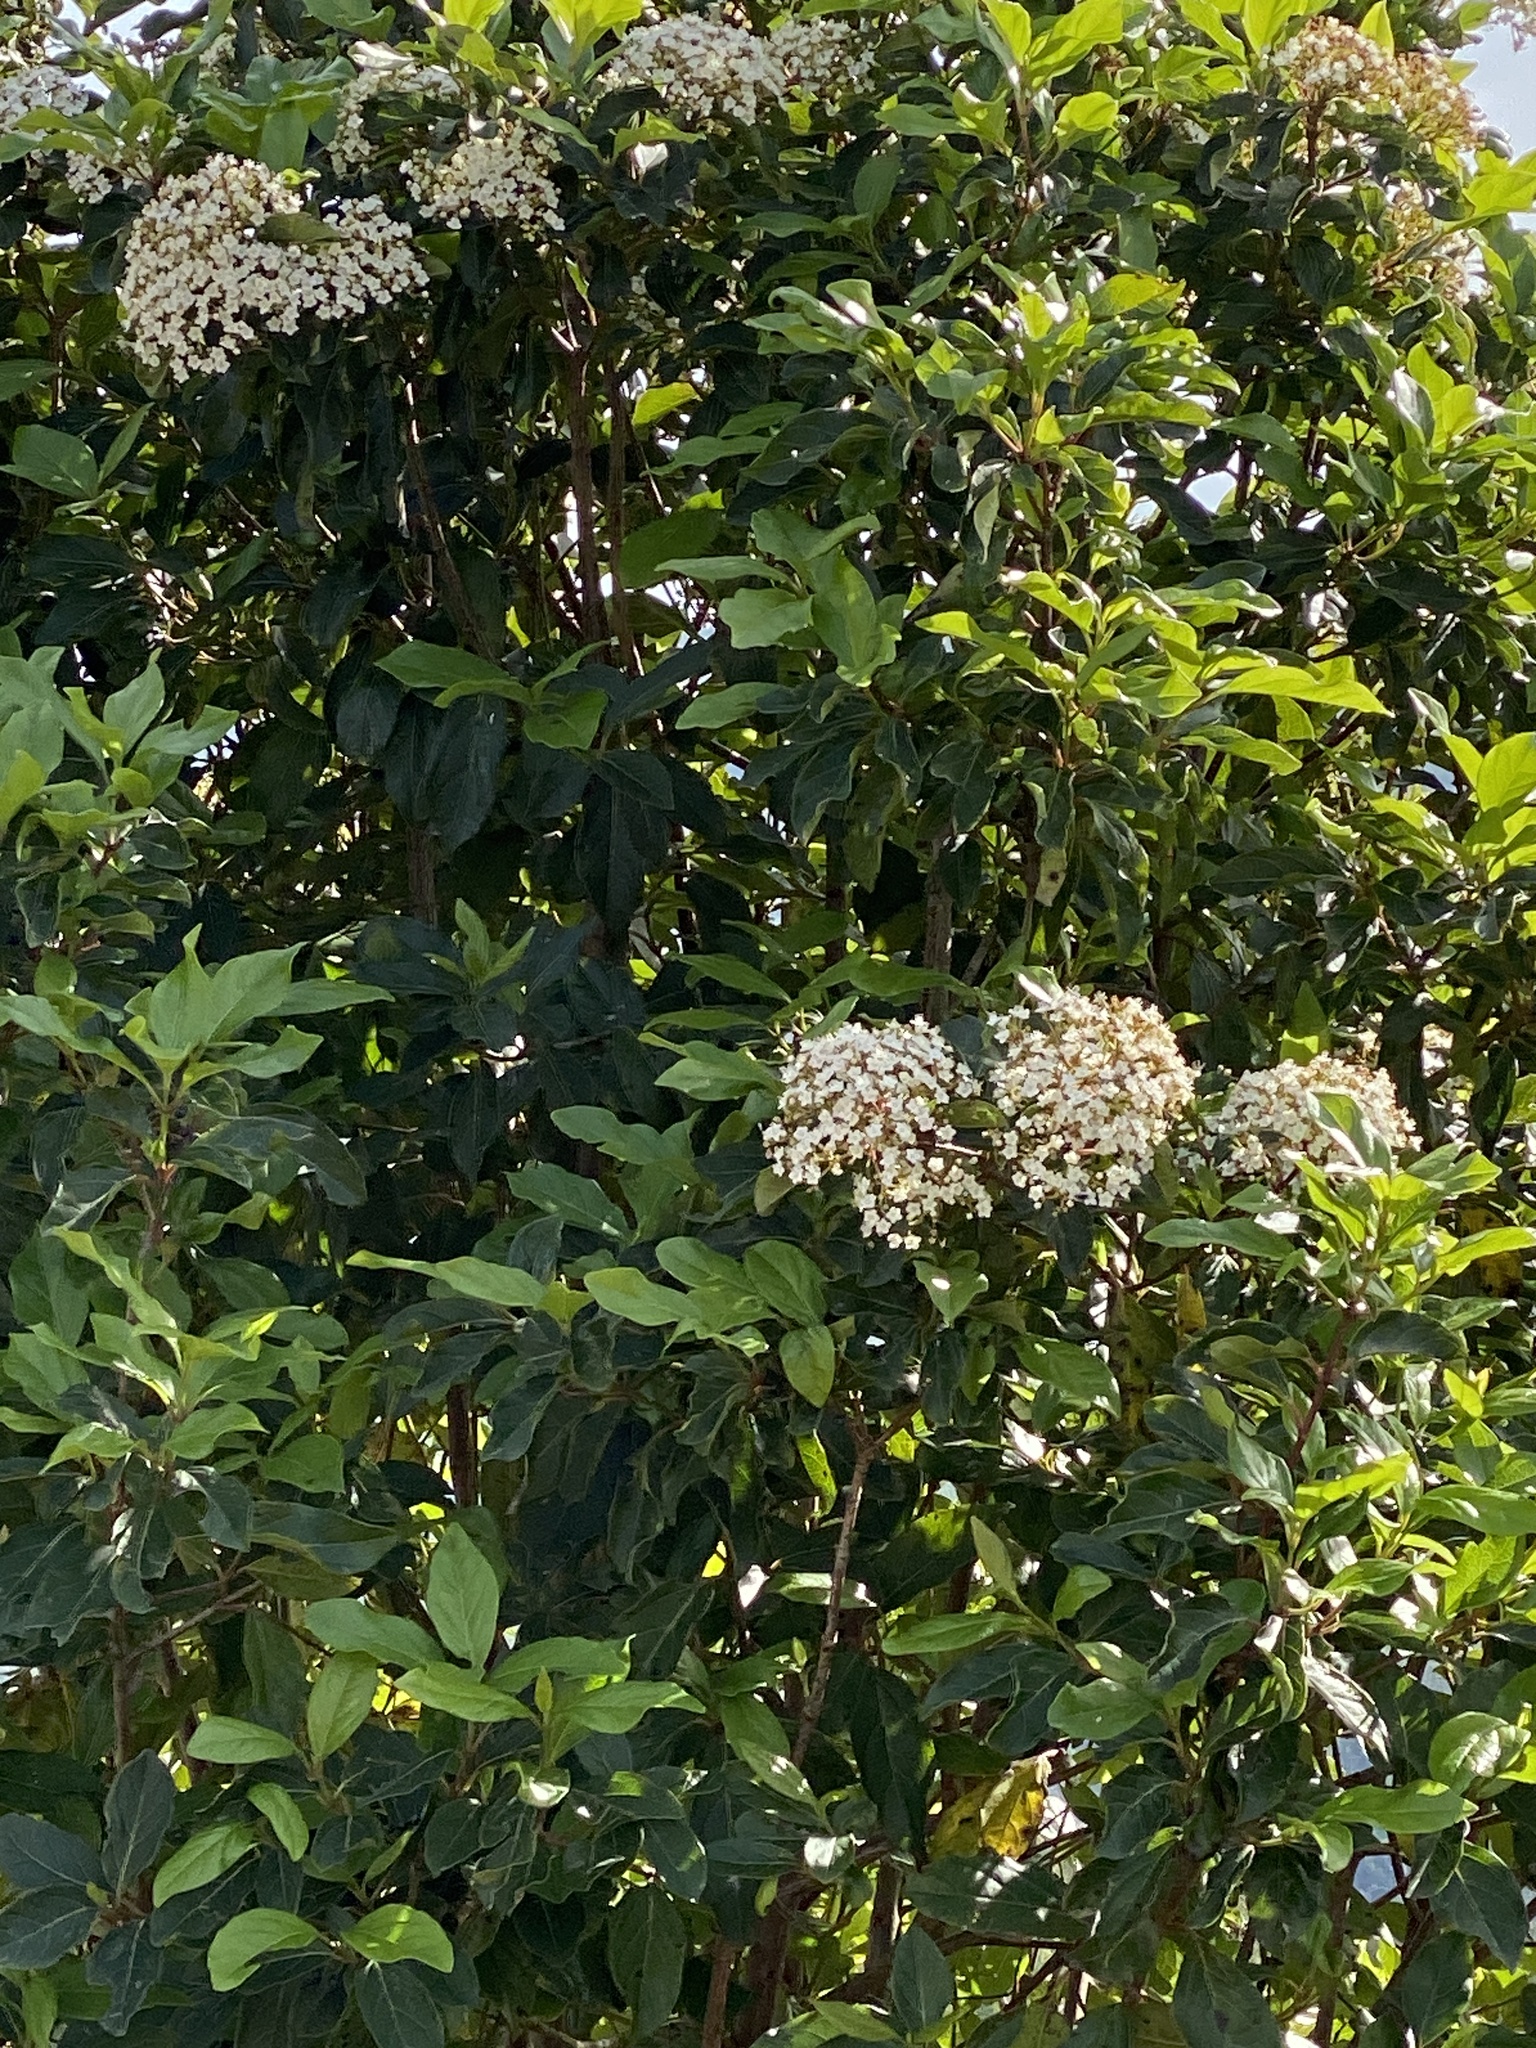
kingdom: Plantae
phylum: Tracheophyta
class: Magnoliopsida
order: Dipsacales
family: Viburnaceae
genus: Viburnum
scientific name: Viburnum tinus
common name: Laurustinus
